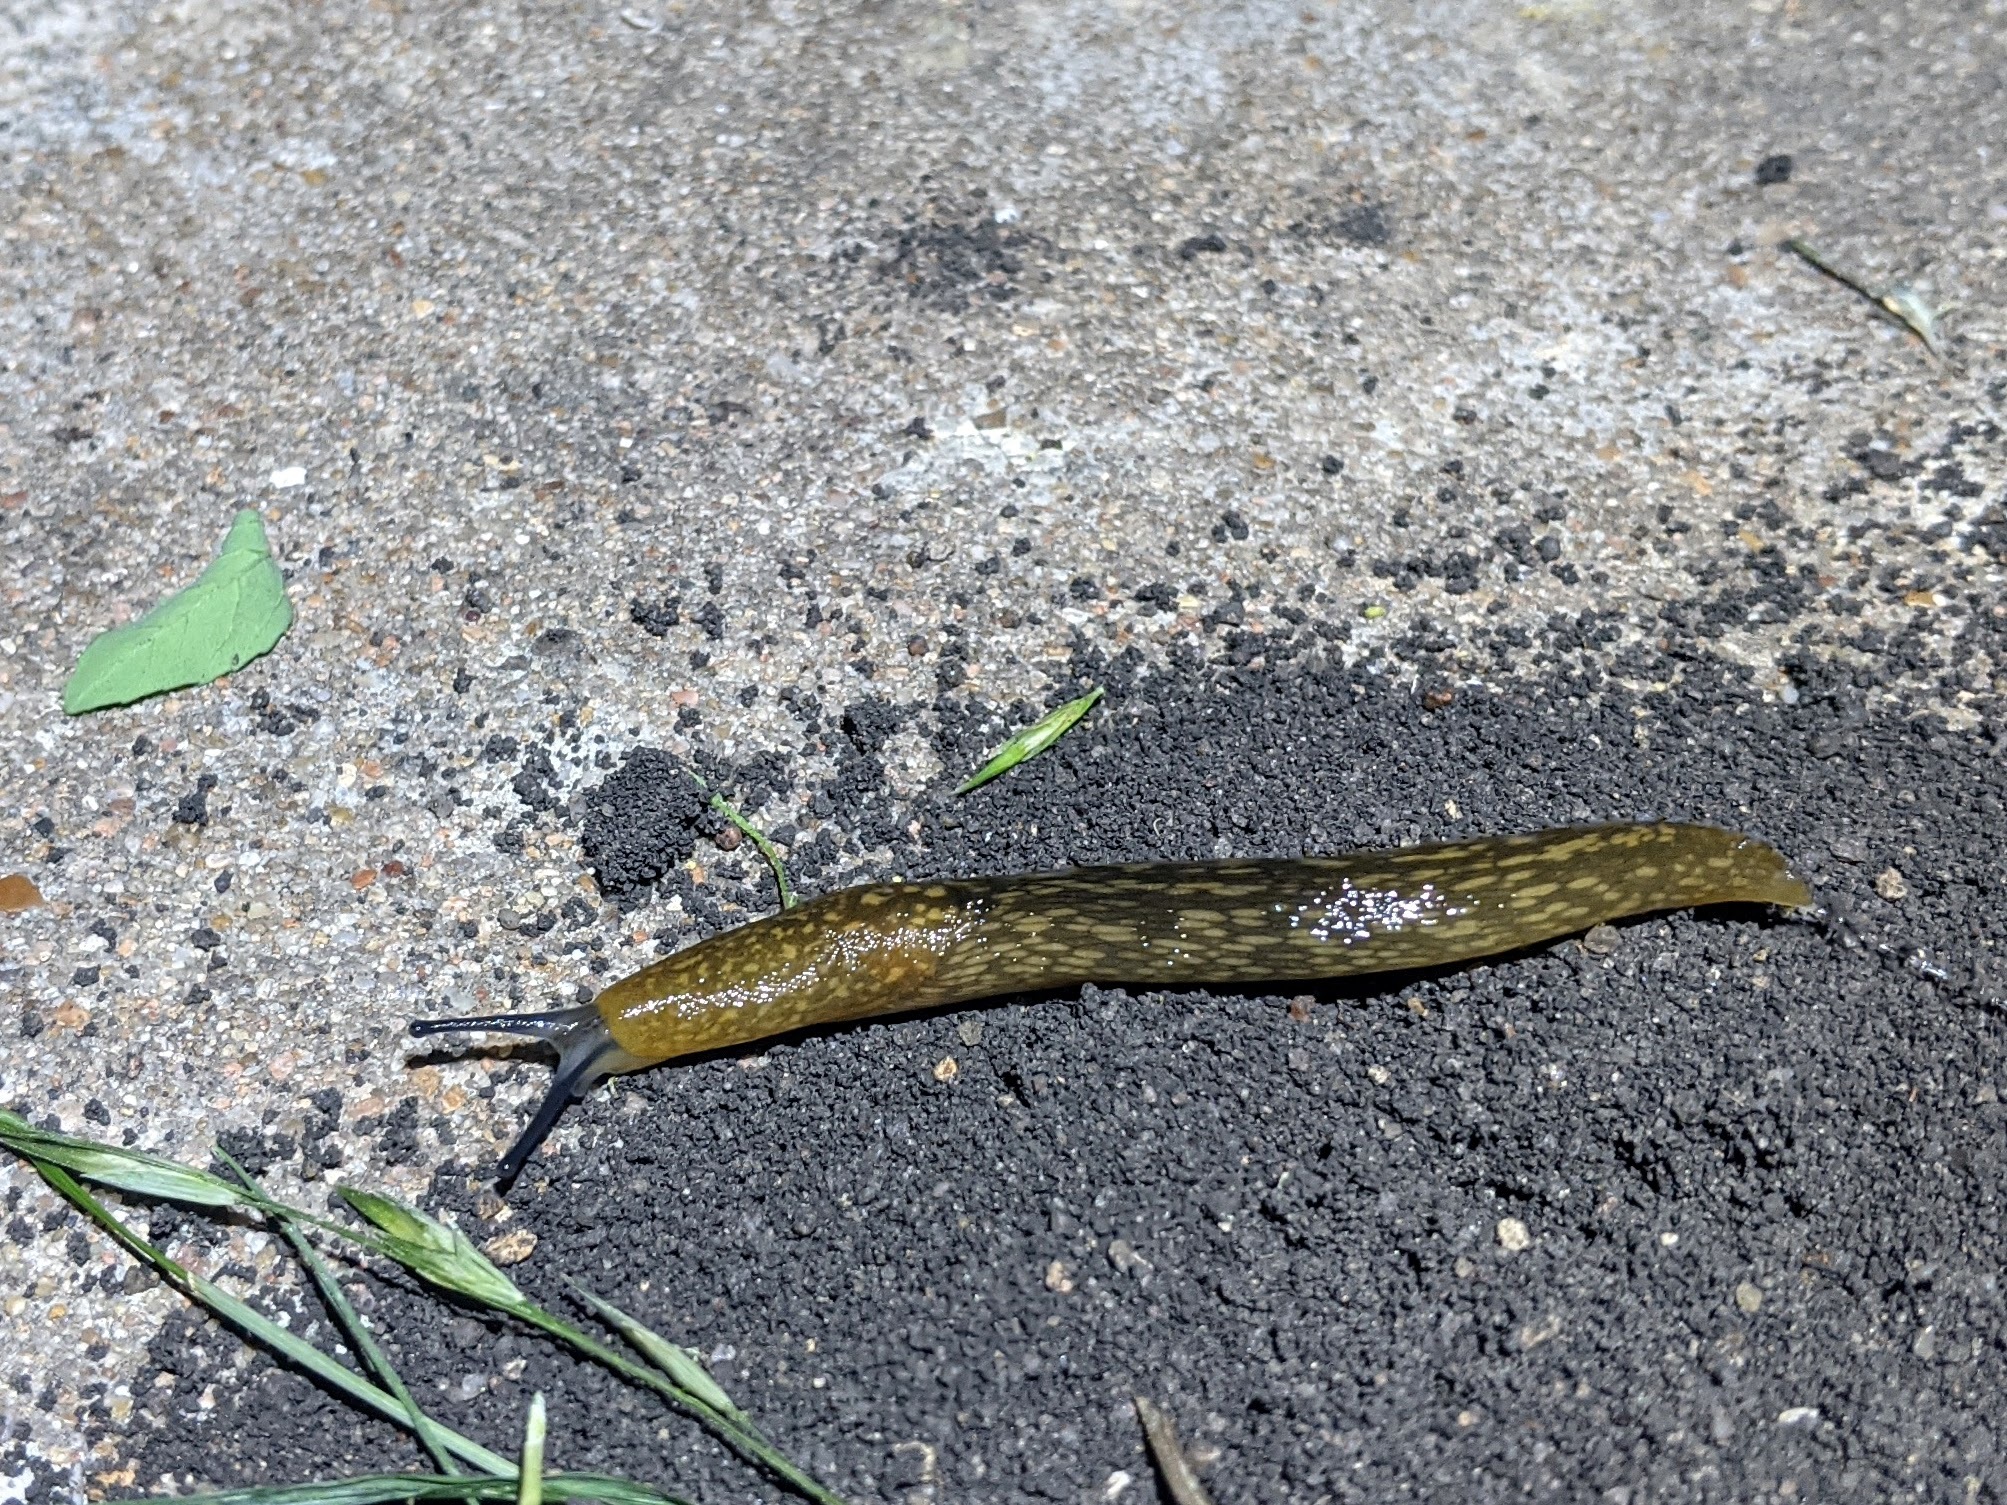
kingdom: Animalia
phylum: Mollusca
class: Gastropoda
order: Stylommatophora
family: Limacidae
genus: Limacus
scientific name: Limacus flavus
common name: Yellow gardenslug
